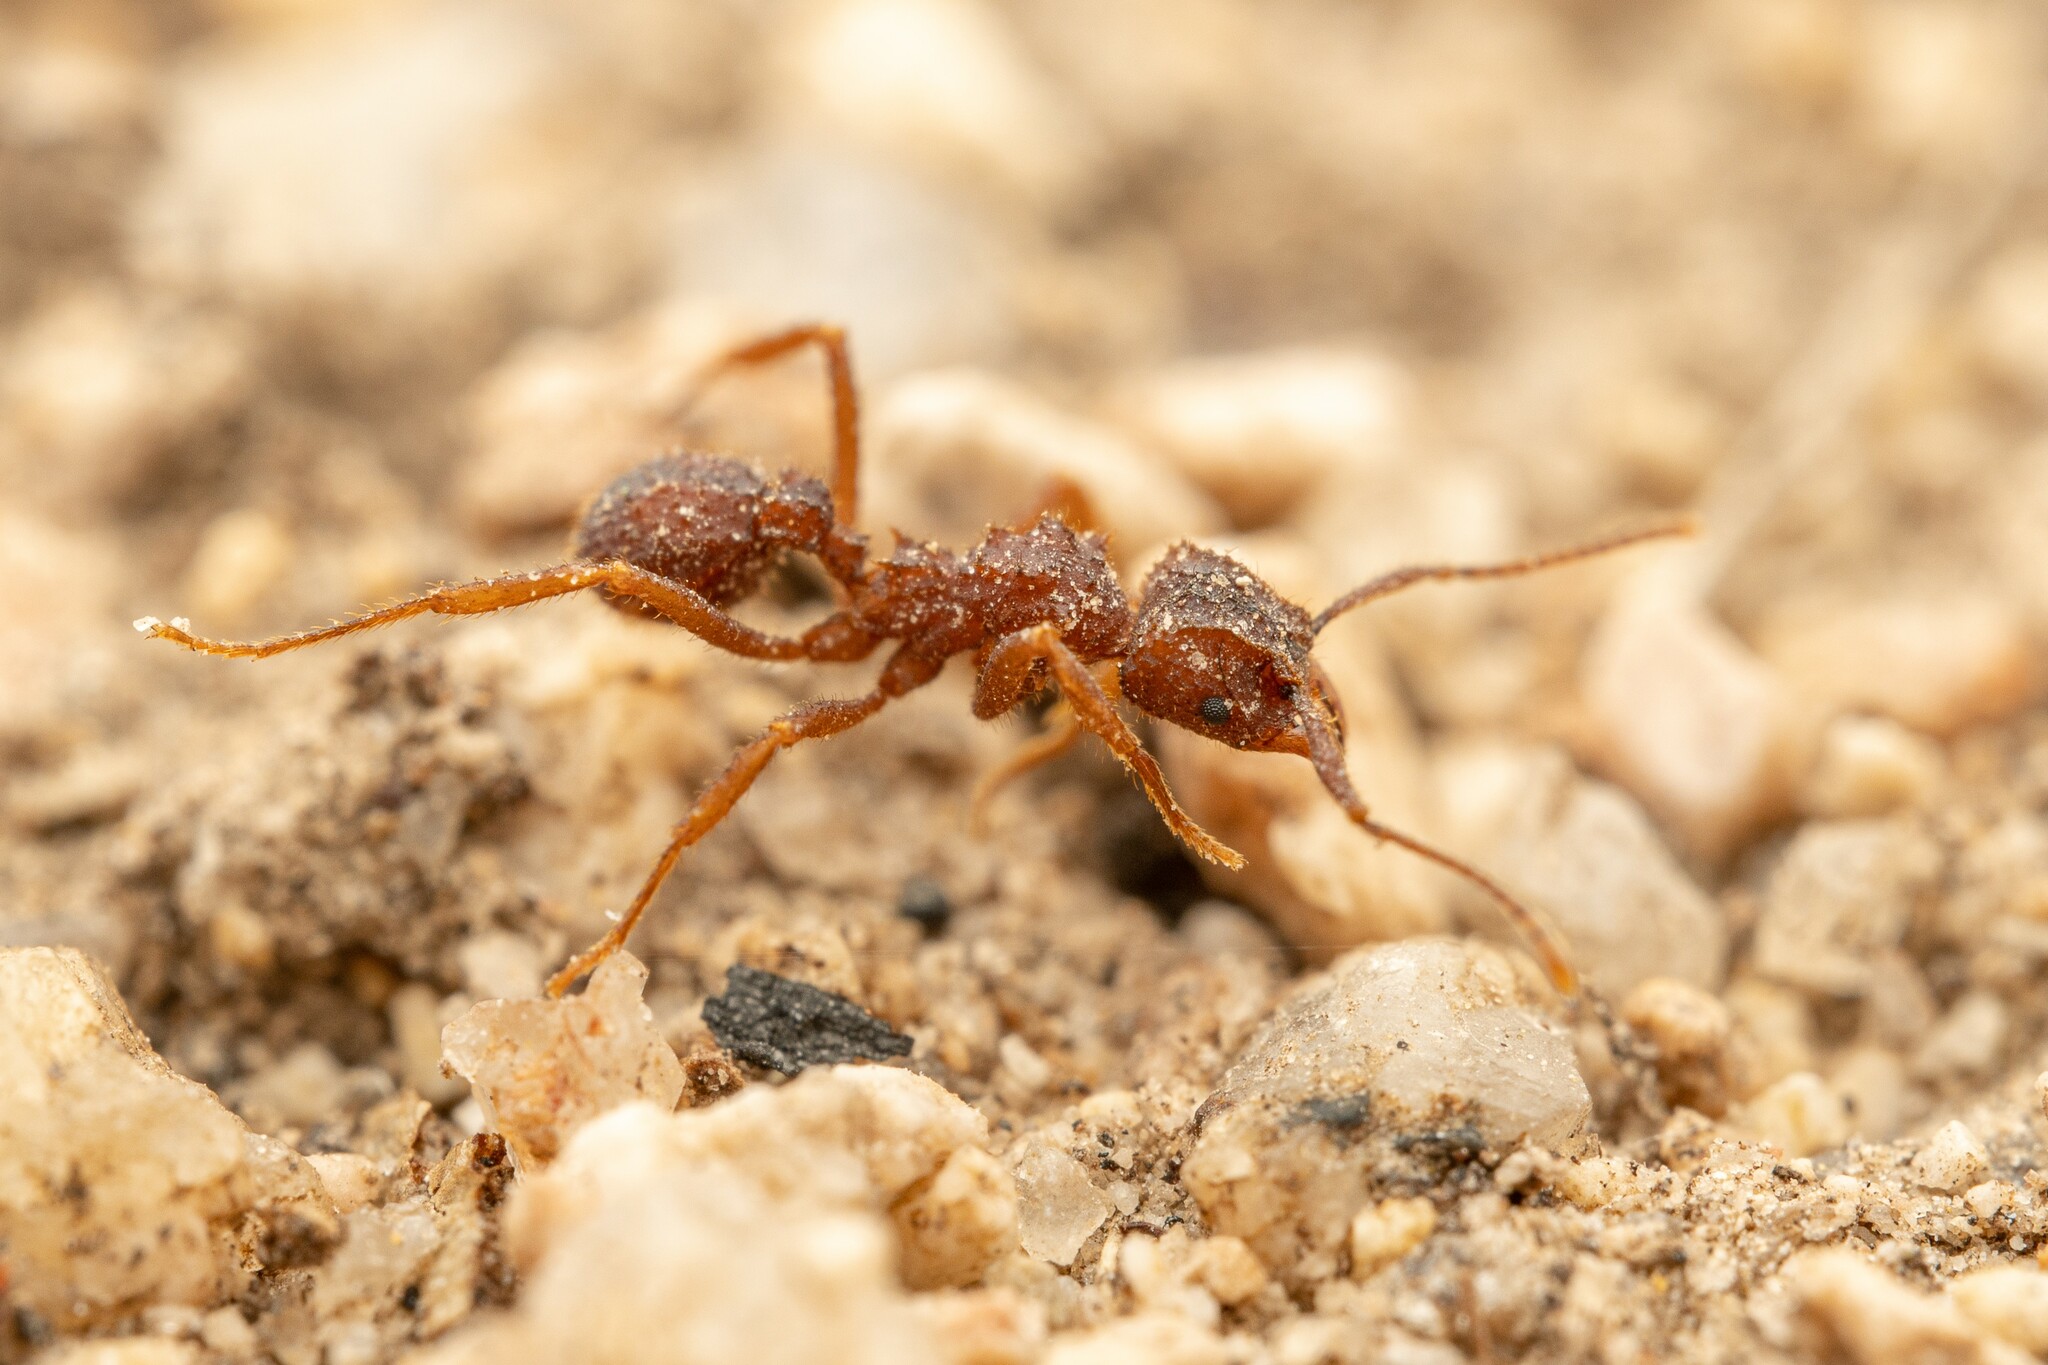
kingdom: Animalia
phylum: Arthropoda
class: Insecta
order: Hymenoptera
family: Formicidae
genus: Trachymyrmex
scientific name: Trachymyrmex carinatus
